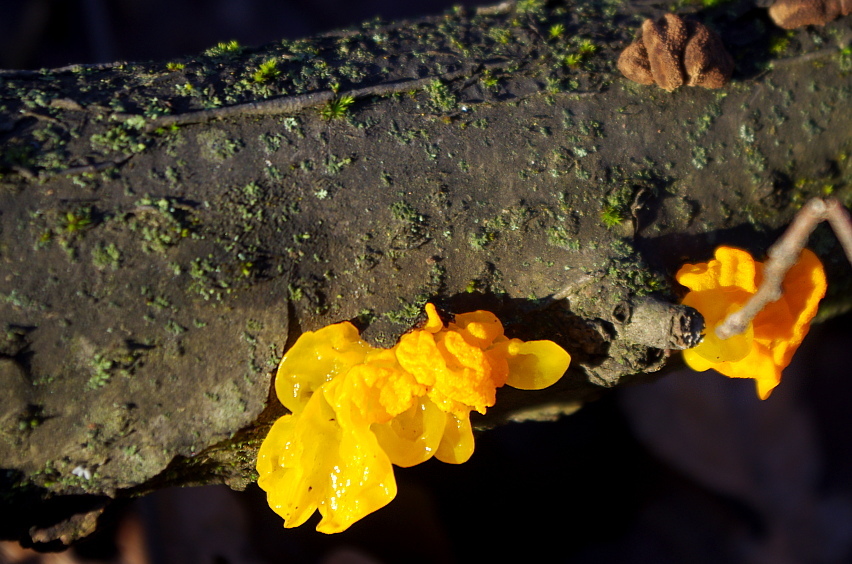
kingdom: Fungi
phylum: Basidiomycota
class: Tremellomycetes
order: Tremellales
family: Tremellaceae
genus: Tremella
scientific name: Tremella mesenterica
